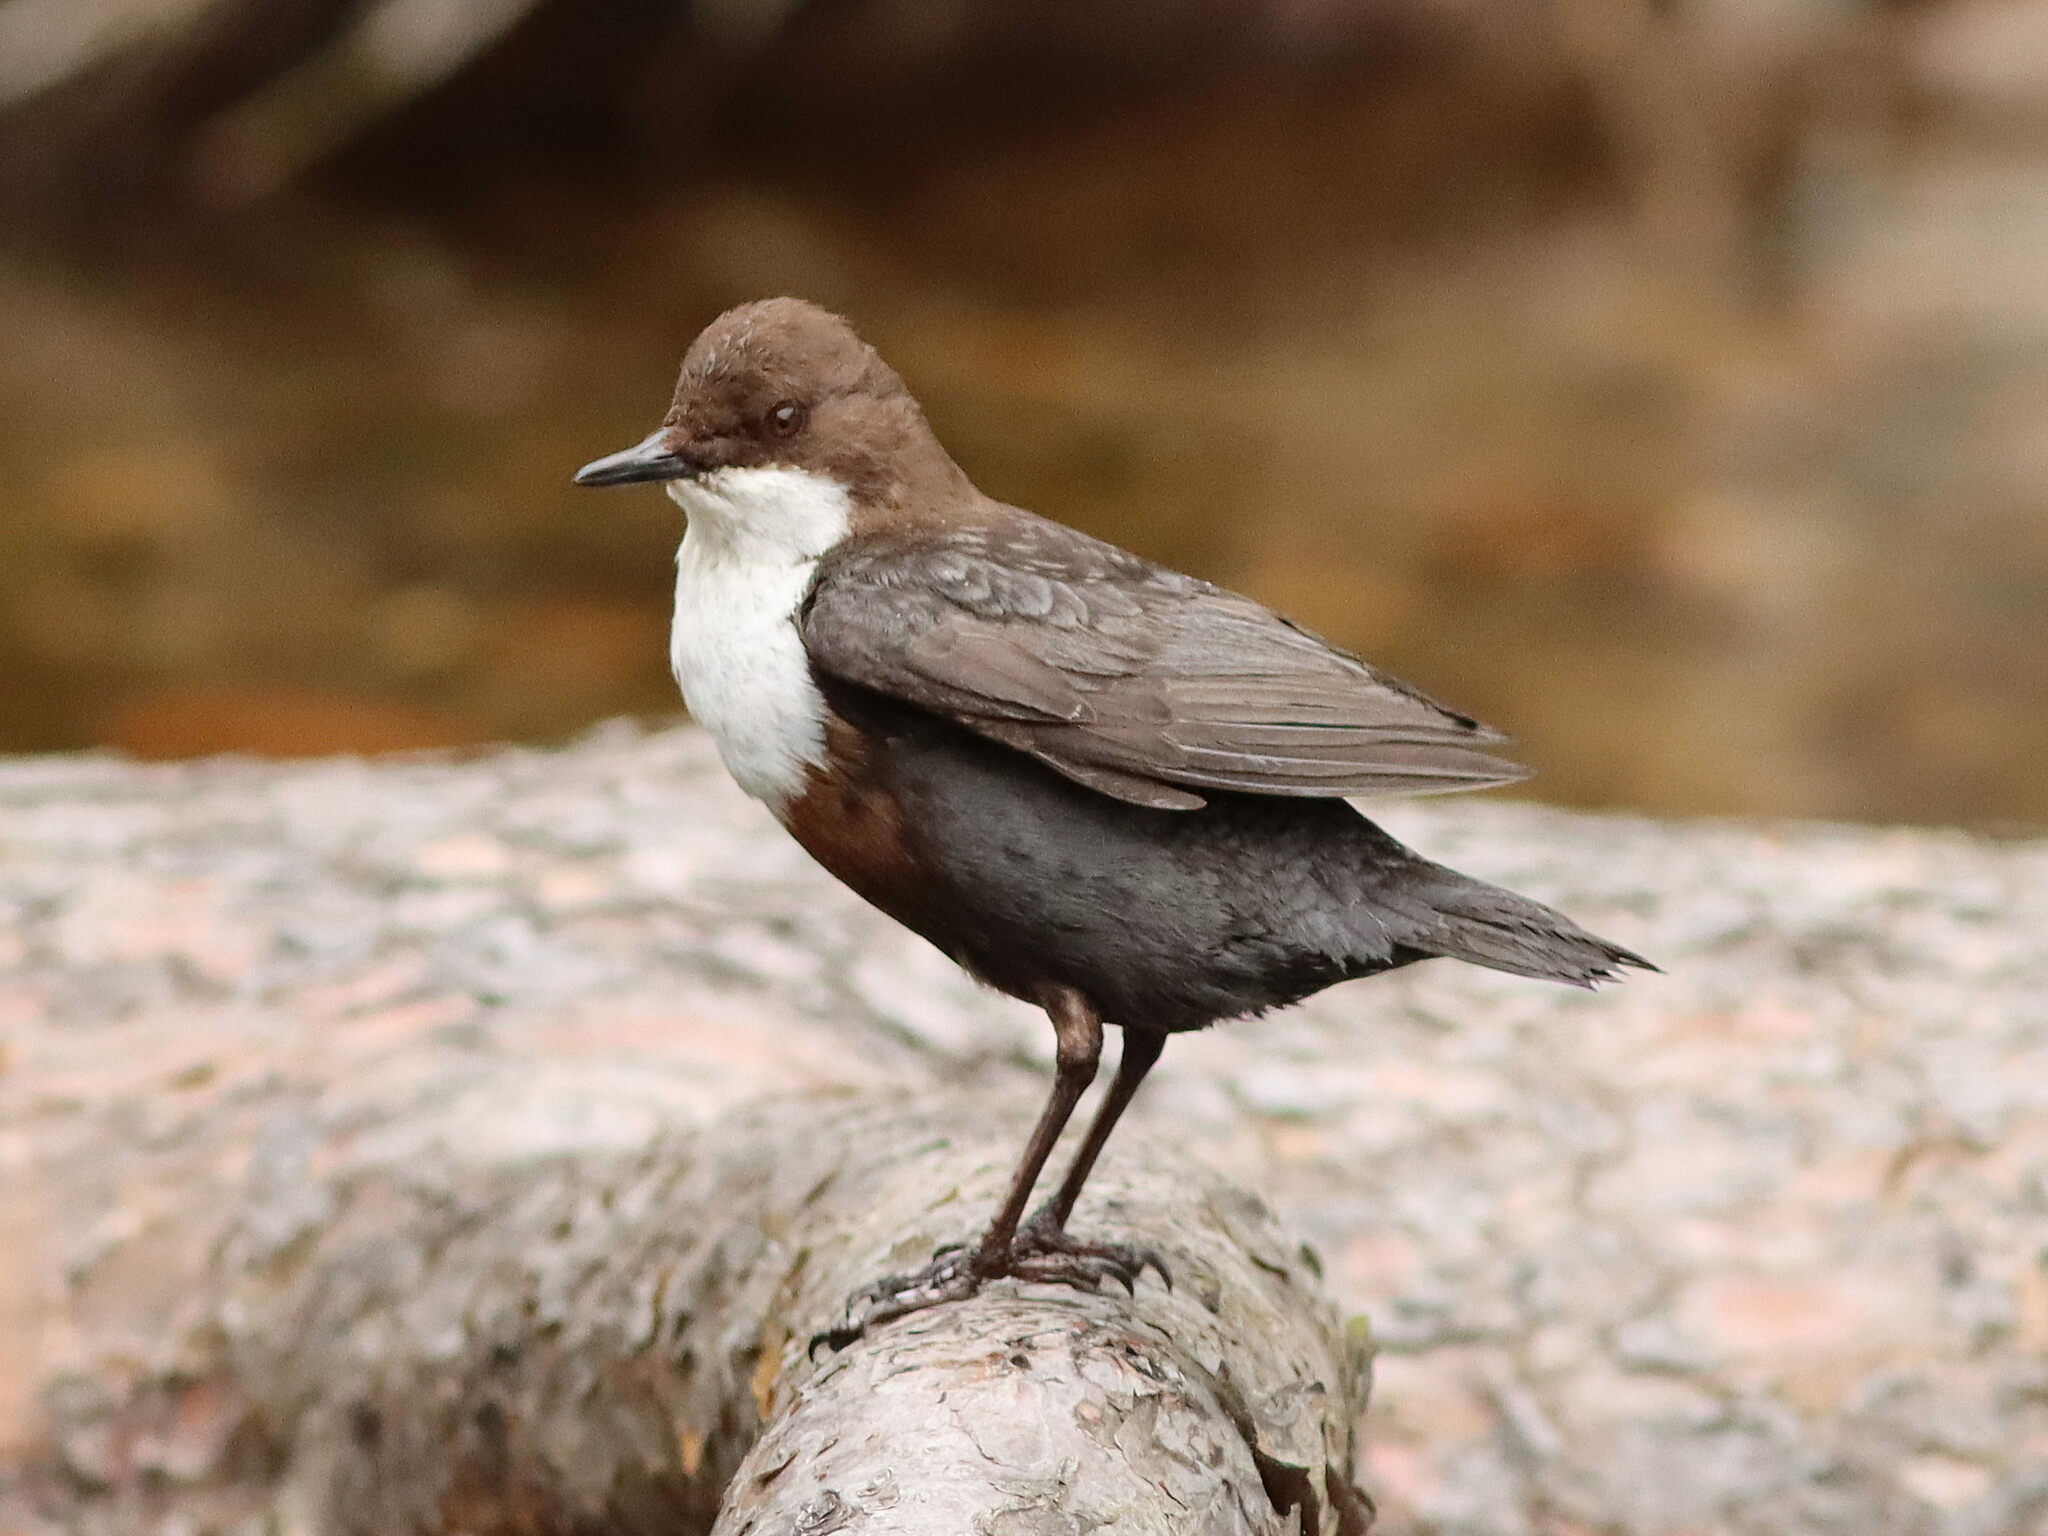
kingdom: Animalia
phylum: Chordata
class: Aves
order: Passeriformes
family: Cinclidae
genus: Cinclus
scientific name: Cinclus cinclus
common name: White-throated dipper
